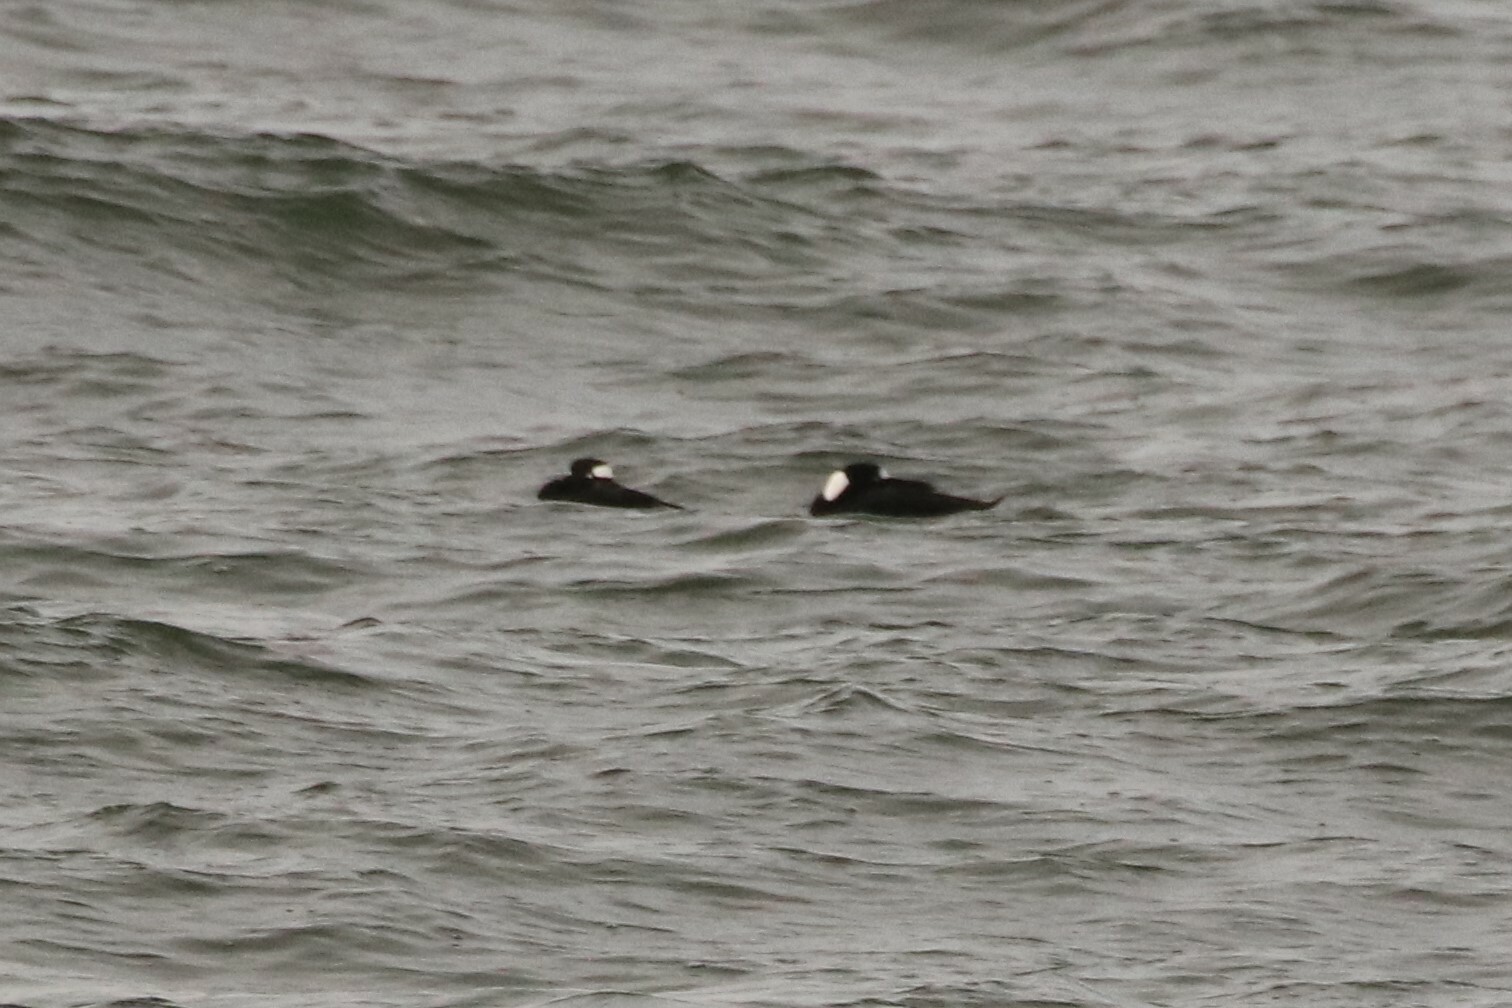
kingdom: Animalia
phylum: Chordata
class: Aves
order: Anseriformes
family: Anatidae
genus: Melanitta
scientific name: Melanitta perspicillata
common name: Surf scoter
